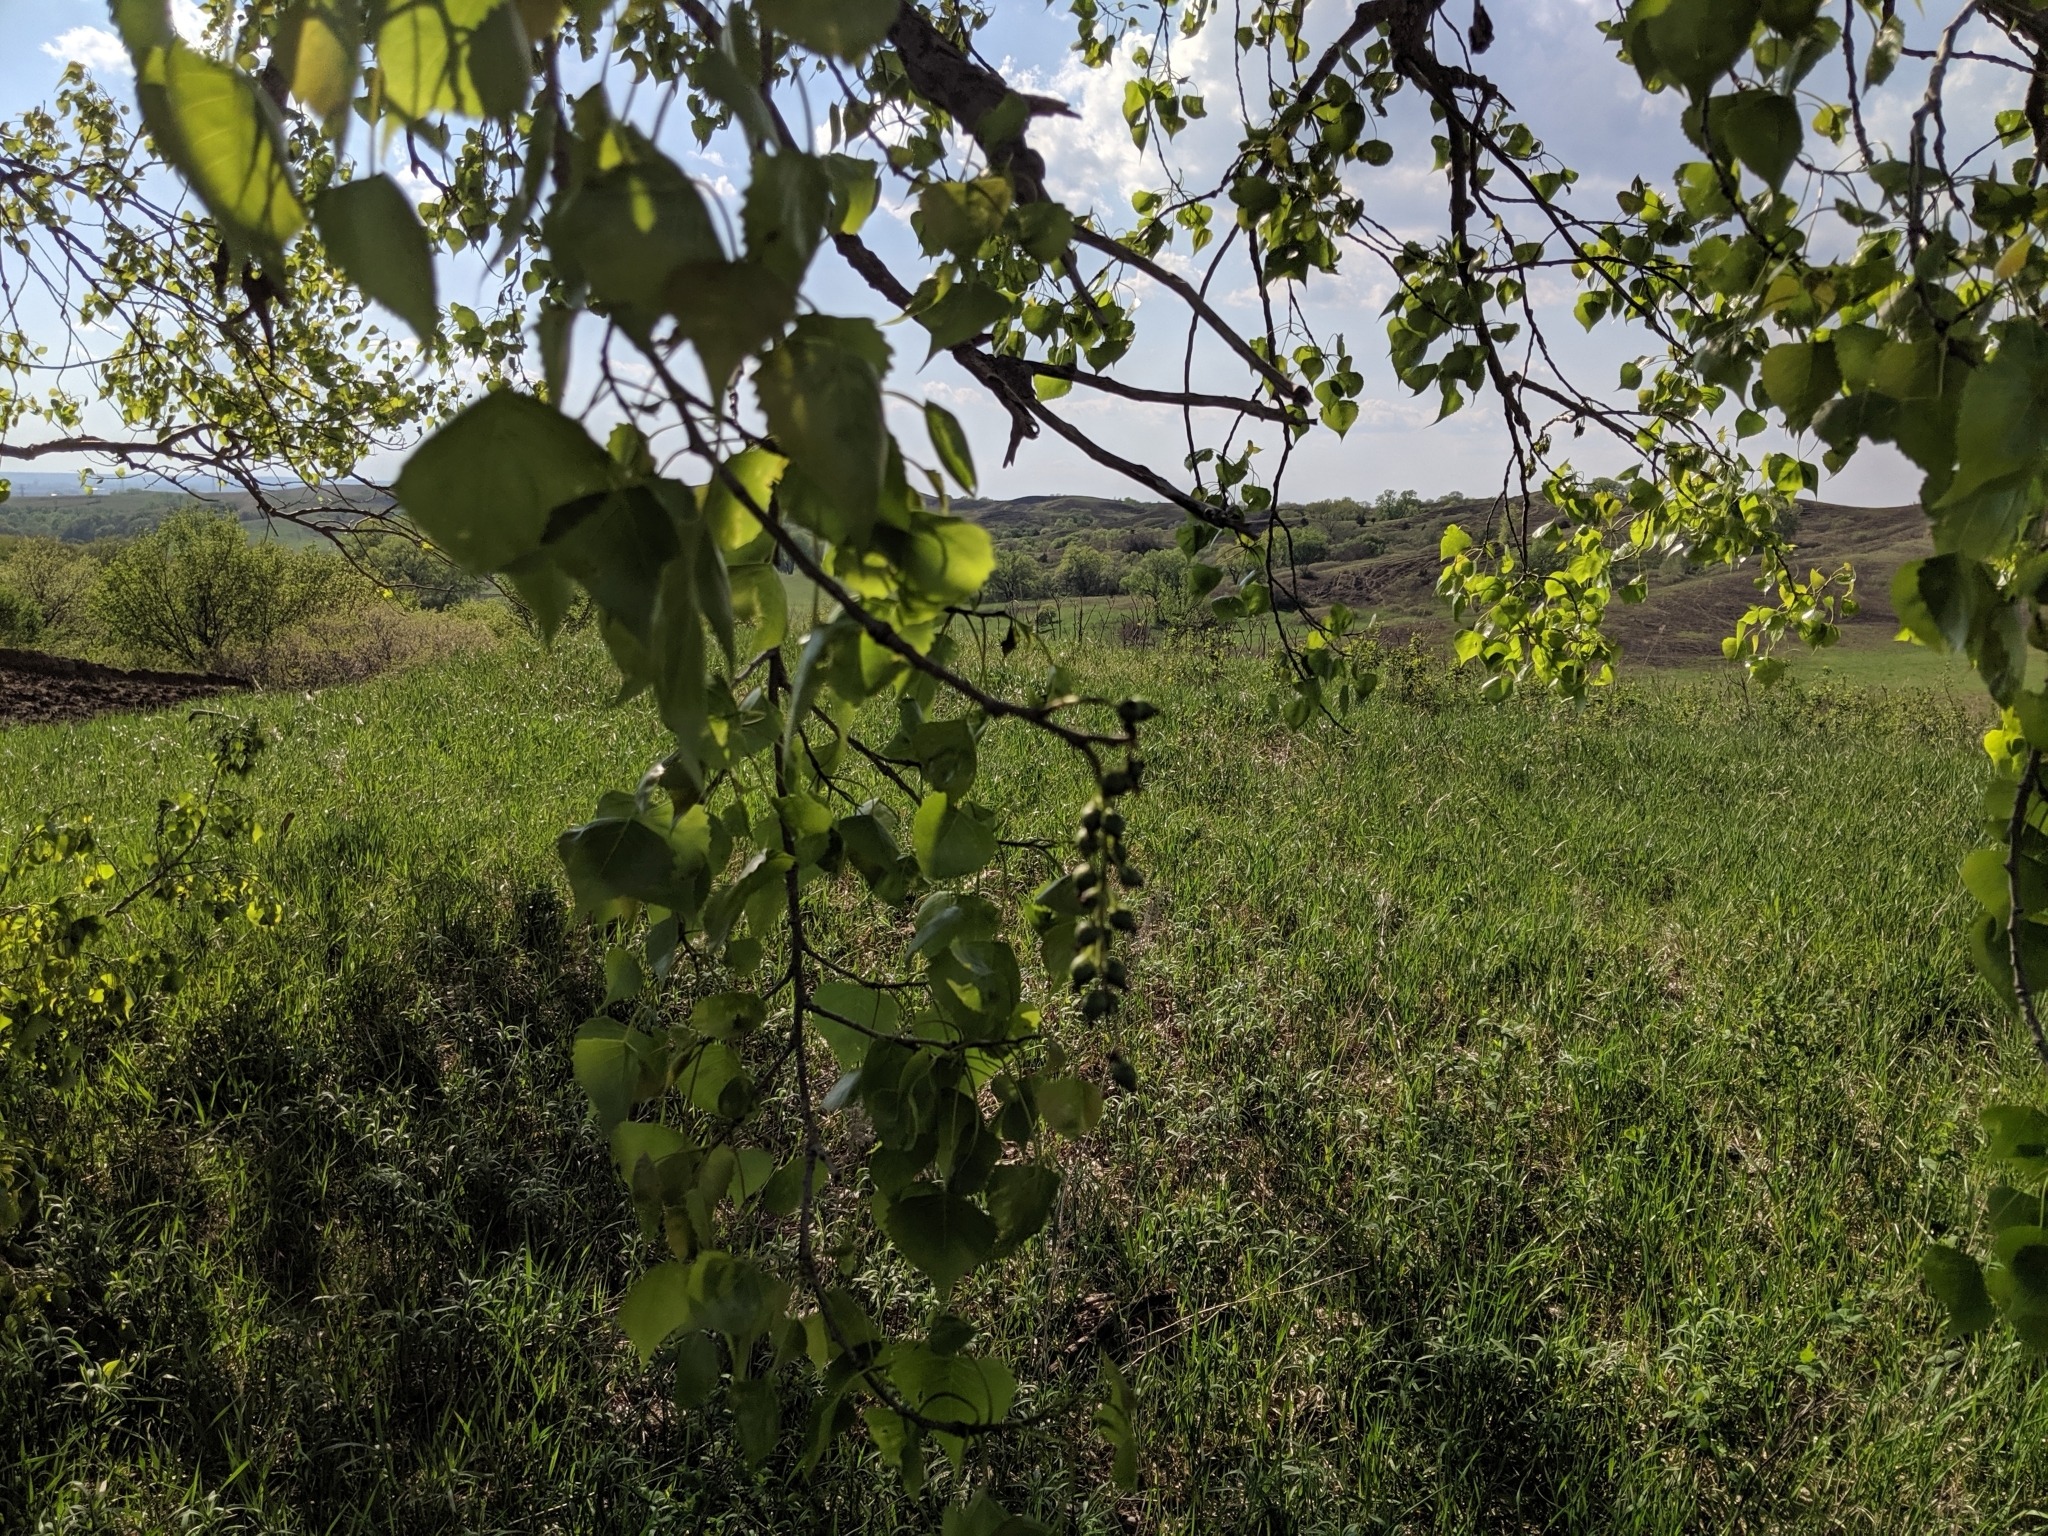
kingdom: Plantae
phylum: Tracheophyta
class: Magnoliopsida
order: Malpighiales
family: Salicaceae
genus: Populus
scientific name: Populus deltoides
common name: Eastern cottonwood
